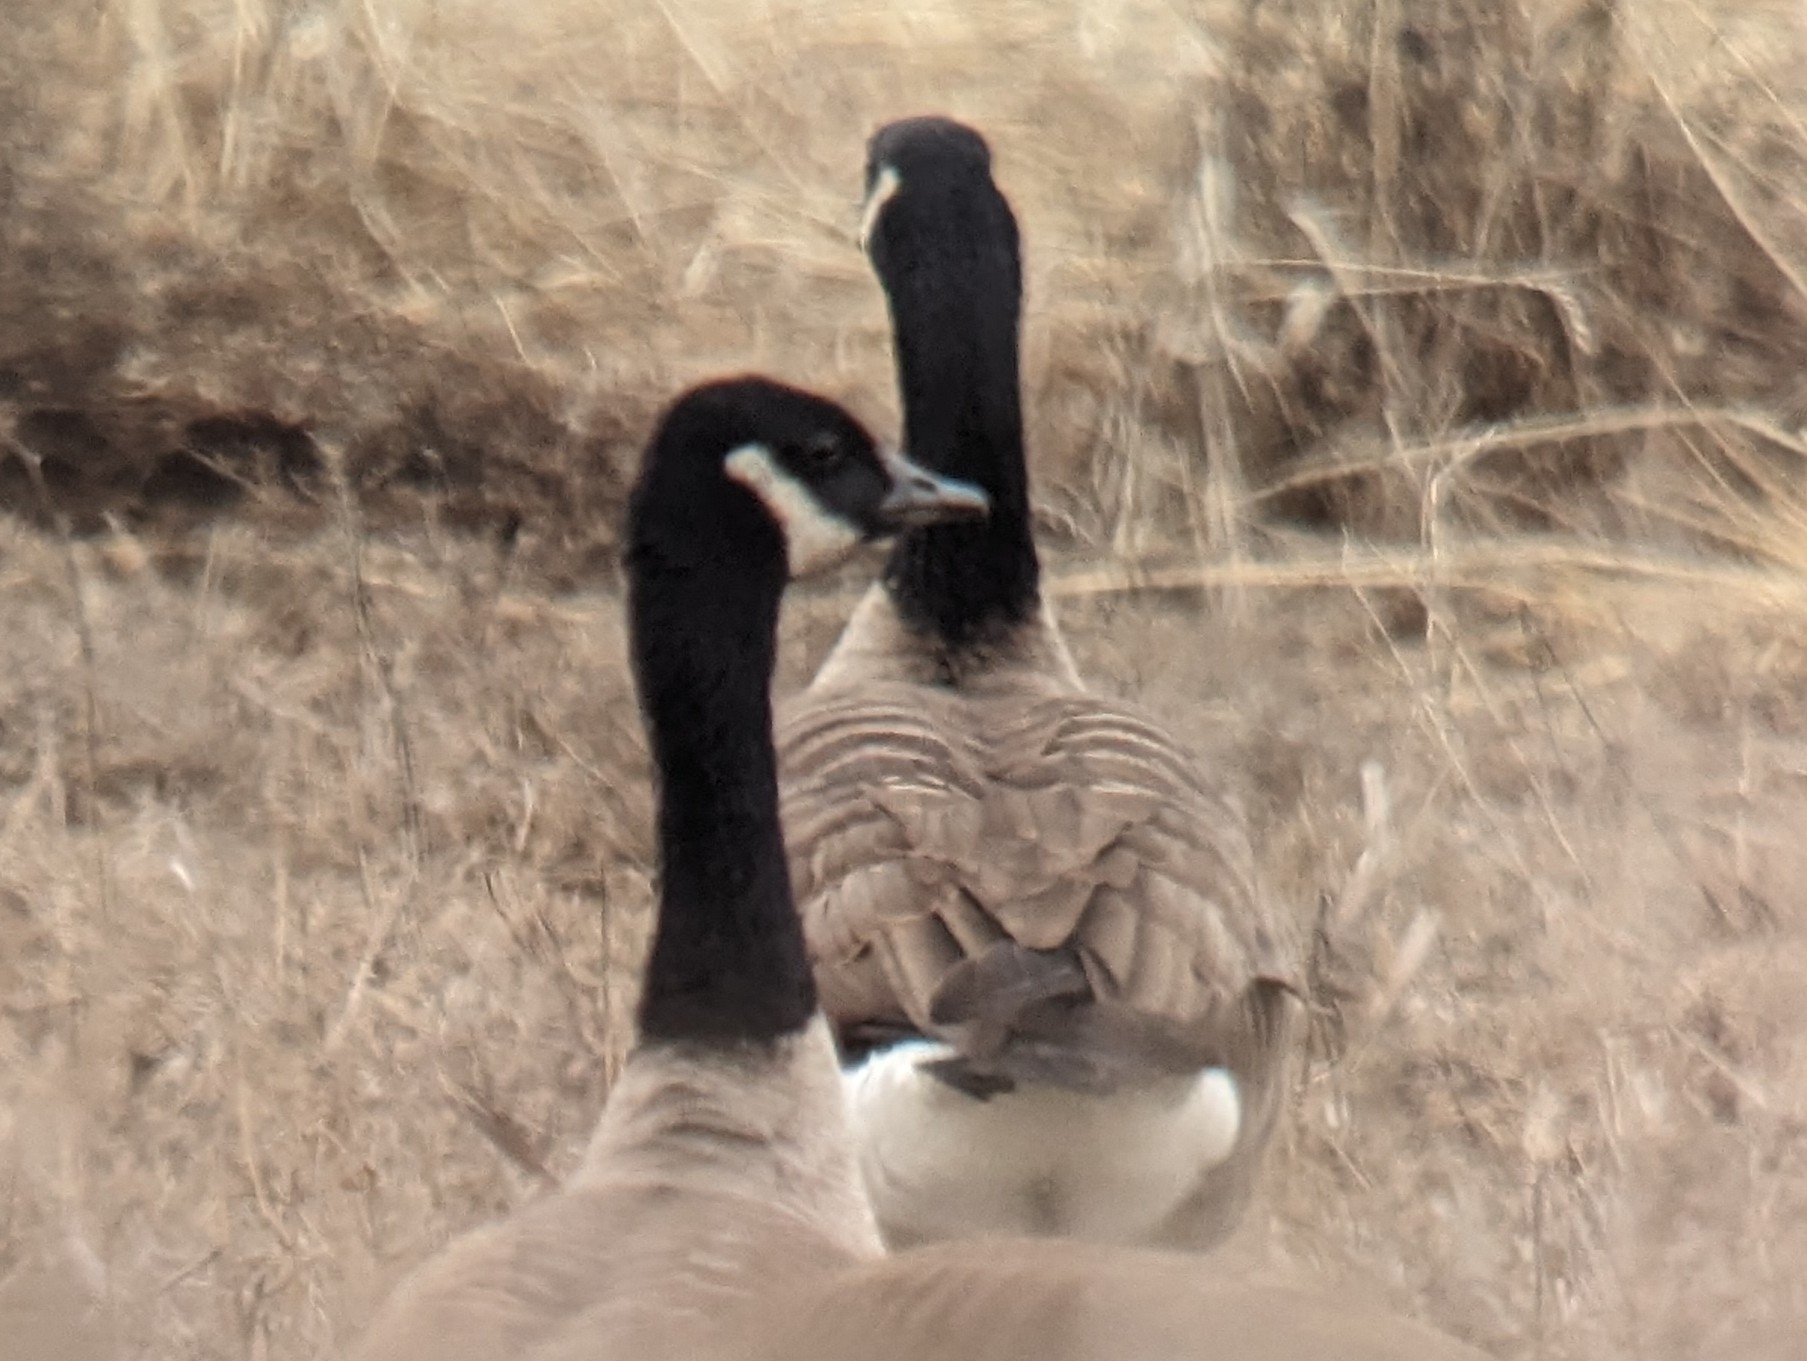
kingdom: Animalia
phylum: Chordata
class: Aves
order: Anseriformes
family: Anatidae
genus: Branta
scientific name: Branta canadensis
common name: Canada goose
